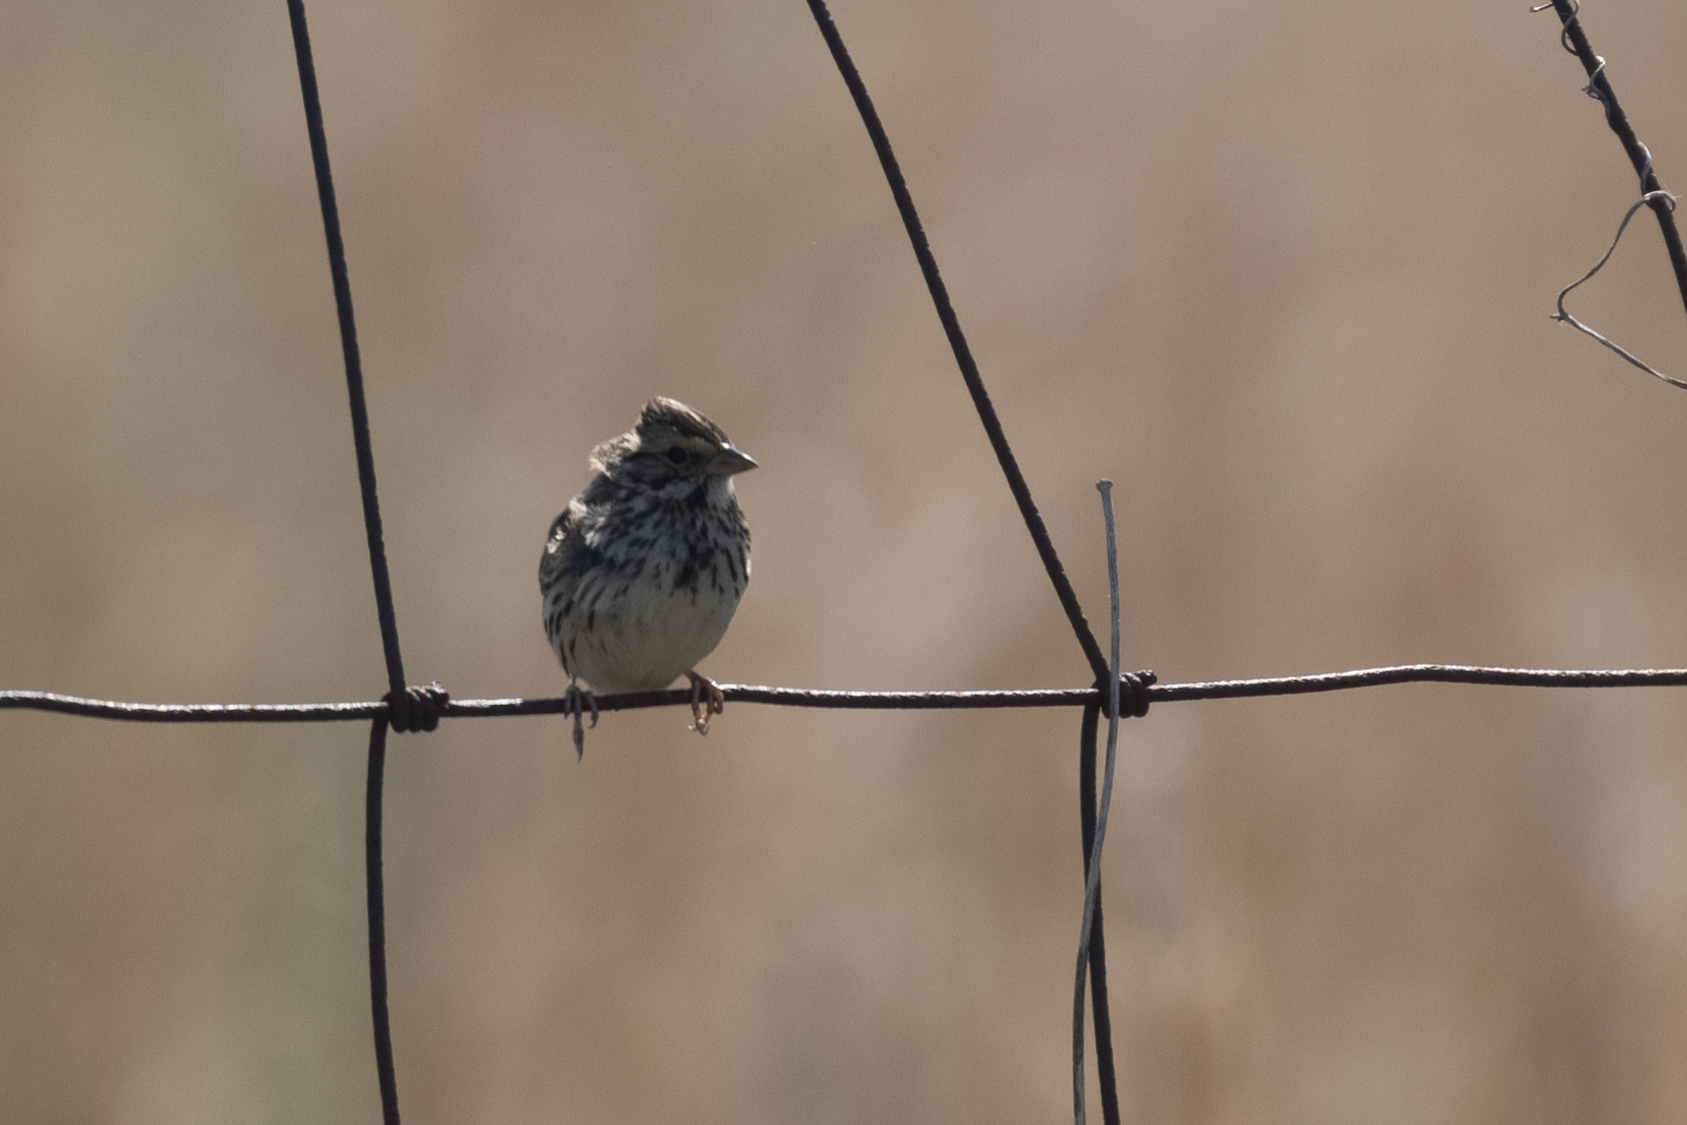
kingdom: Animalia
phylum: Chordata
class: Aves
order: Passeriformes
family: Passerellidae
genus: Passerculus
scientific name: Passerculus sandwichensis
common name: Savannah sparrow
